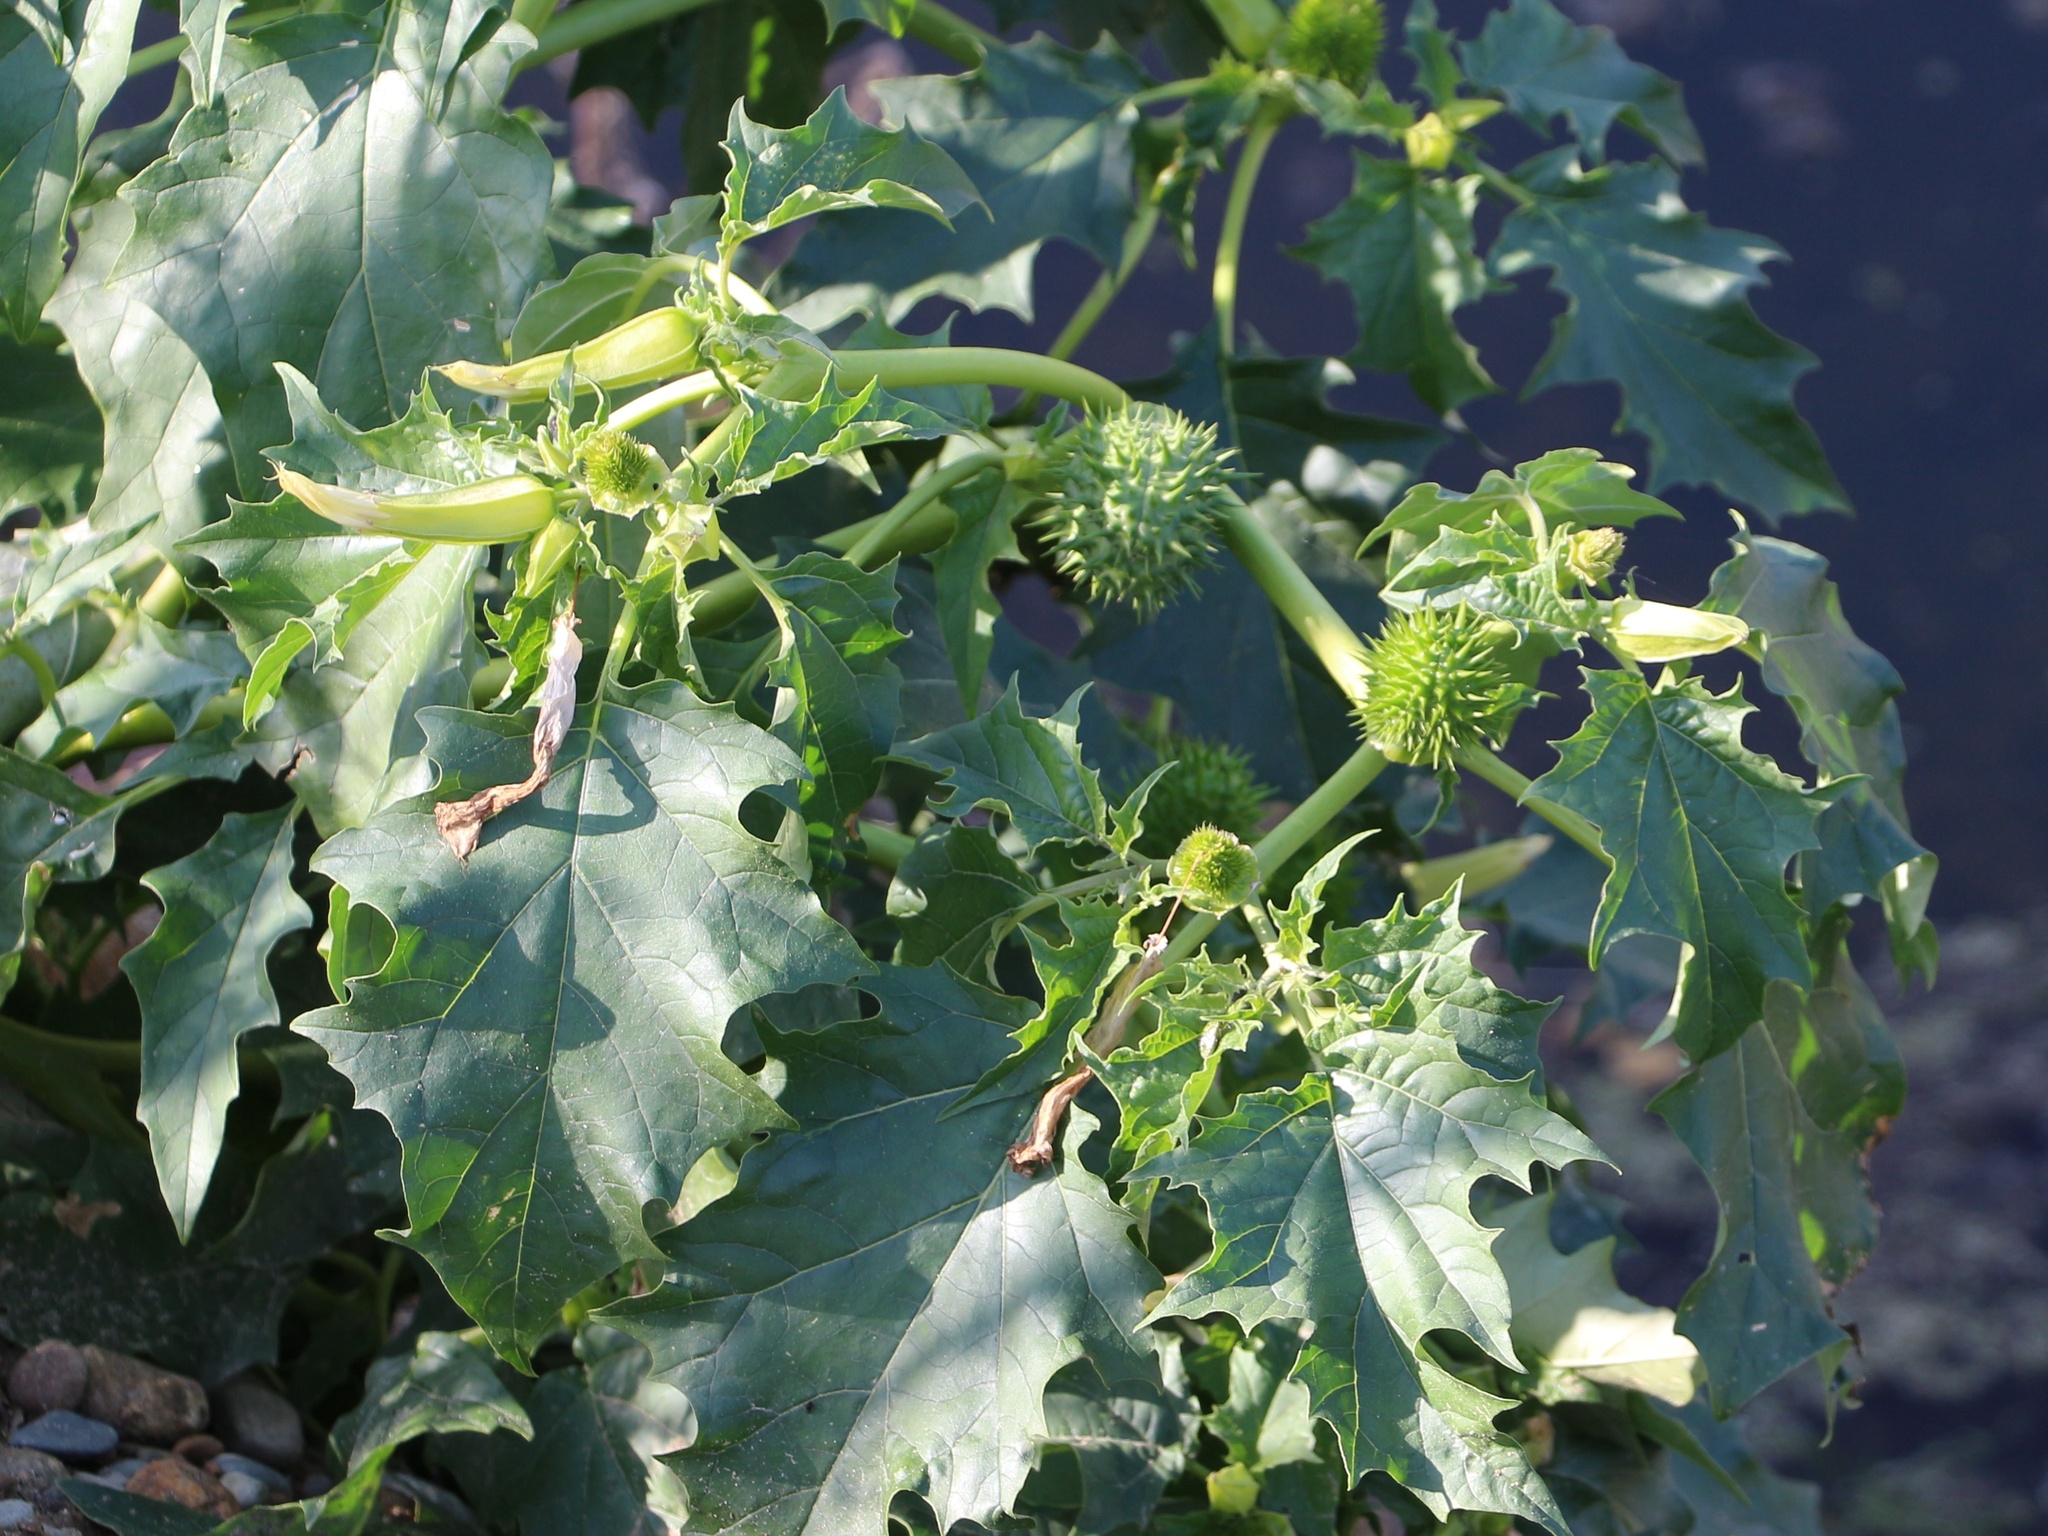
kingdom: Plantae
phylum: Tracheophyta
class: Magnoliopsida
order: Solanales
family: Solanaceae
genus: Datura
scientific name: Datura stramonium
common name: Thorn-apple
